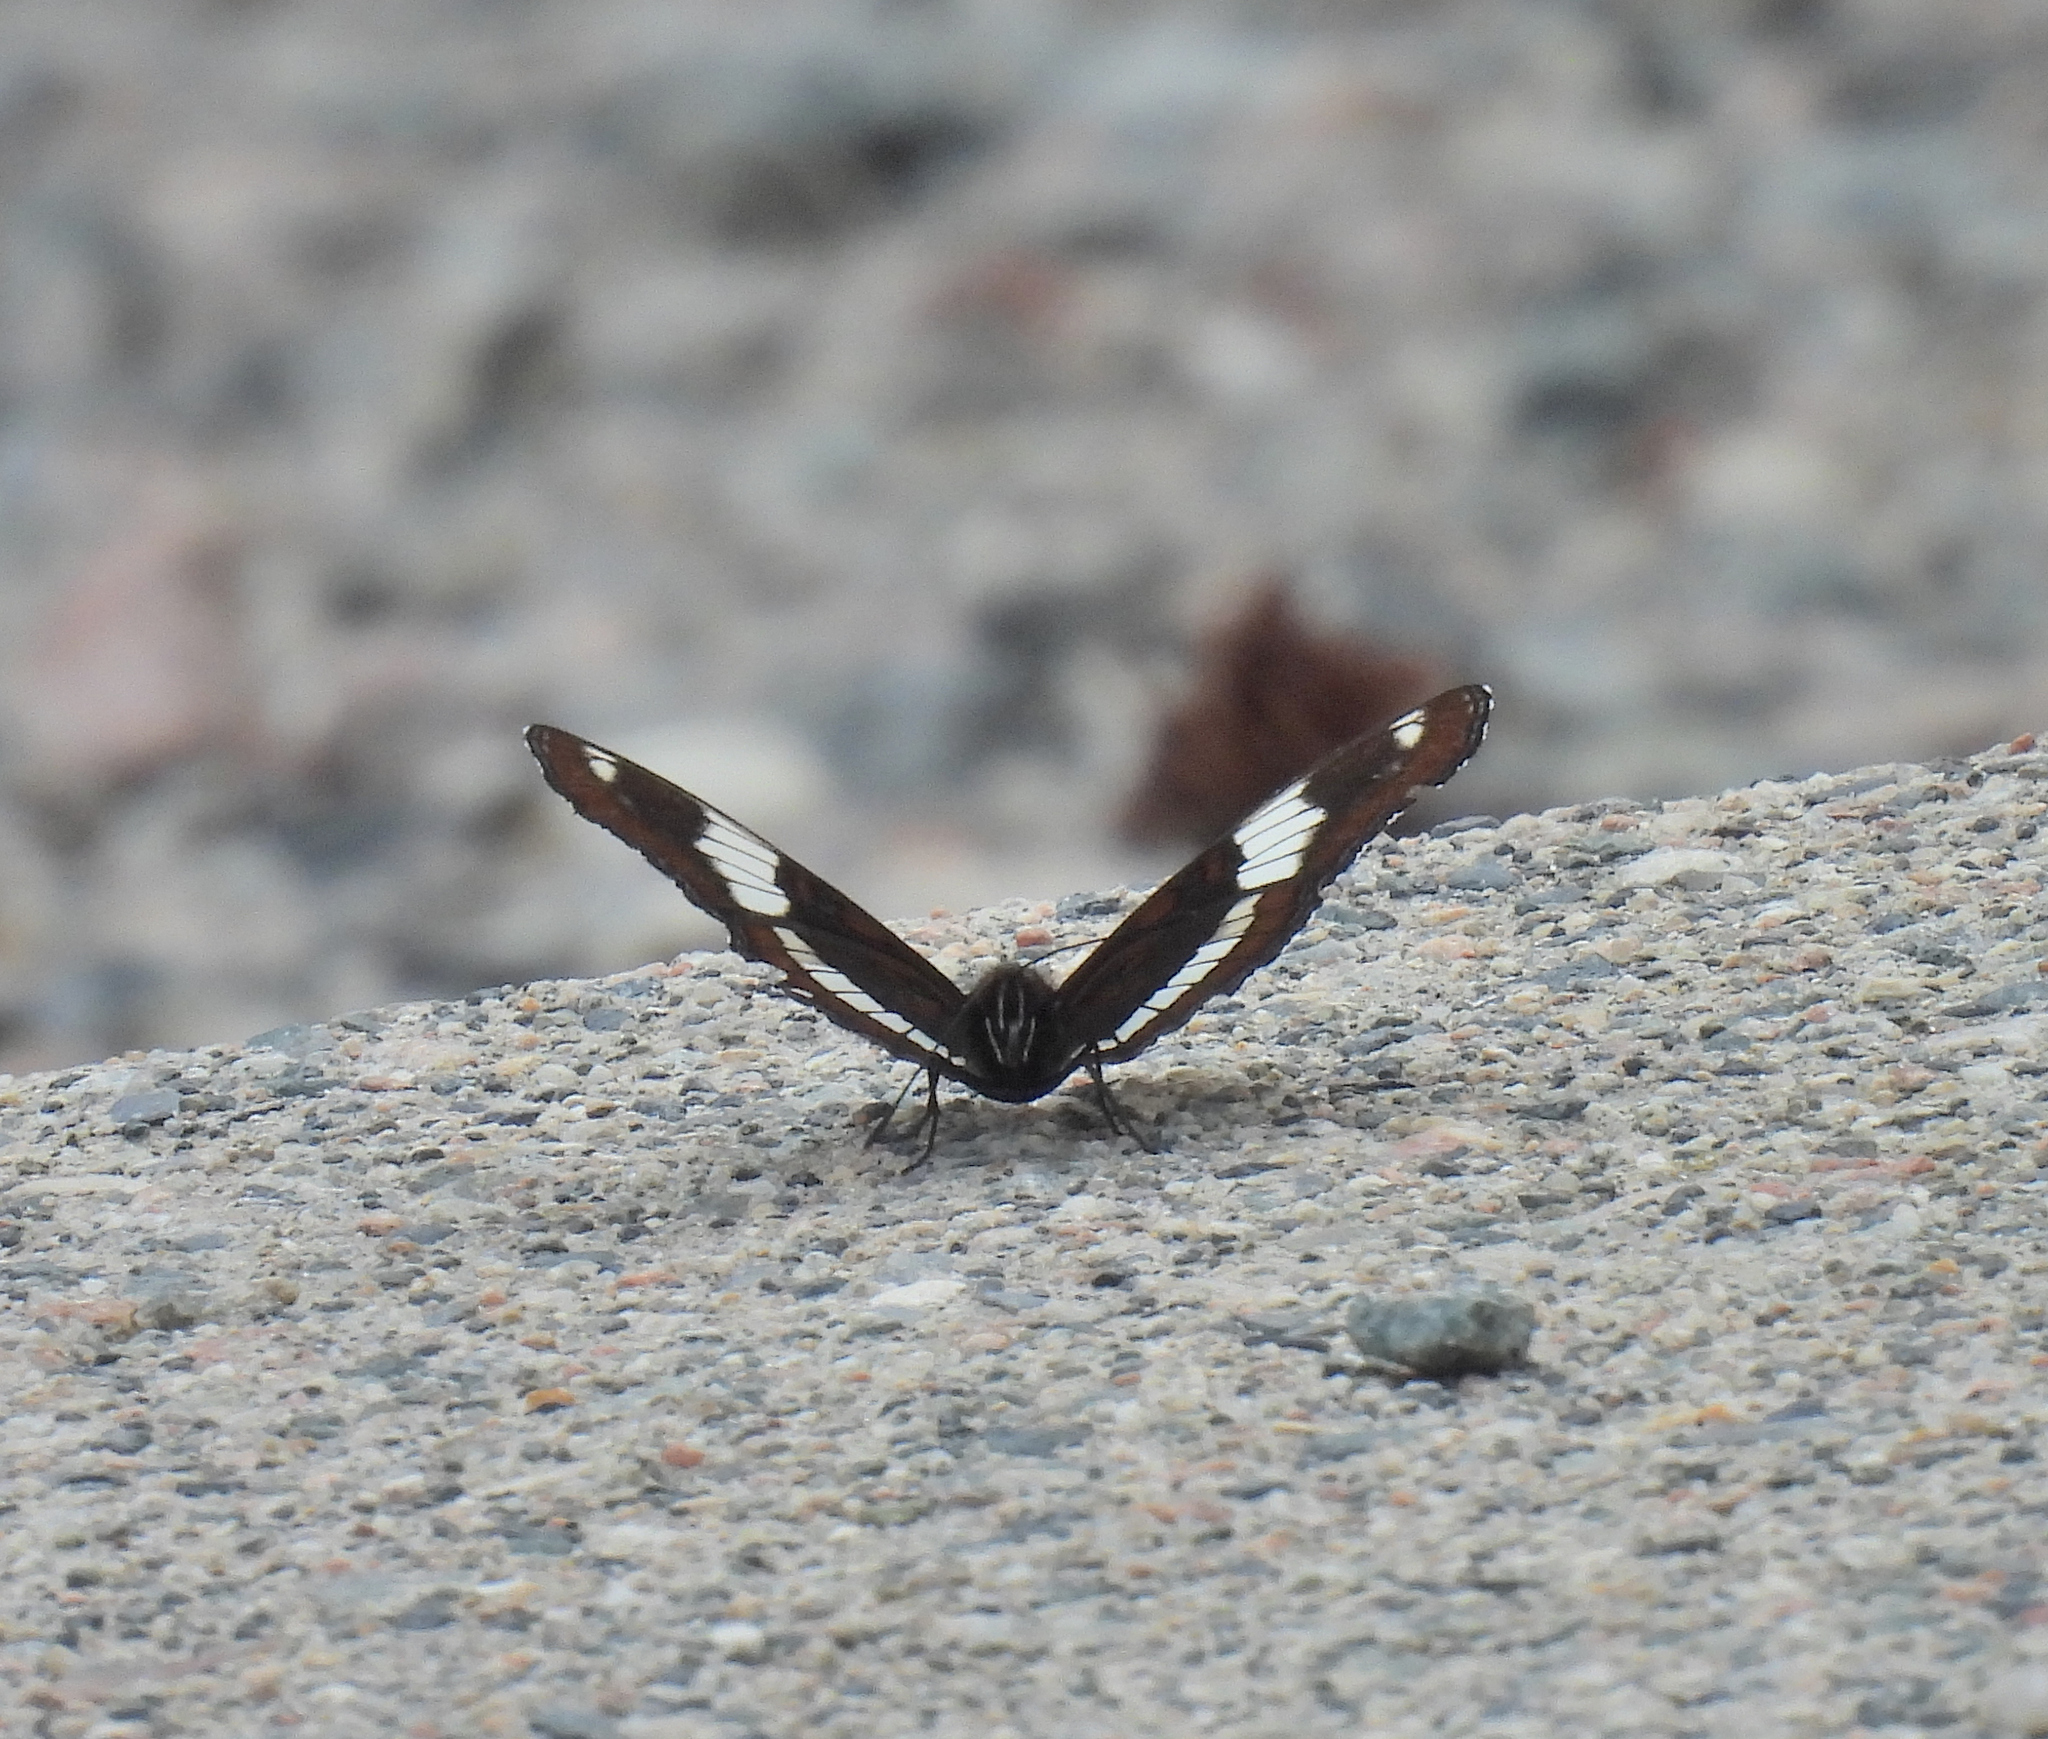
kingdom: Animalia
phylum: Arthropoda
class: Insecta
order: Lepidoptera
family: Nymphalidae
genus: Limenitis
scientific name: Limenitis arthemis
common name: Red-spotted admiral
